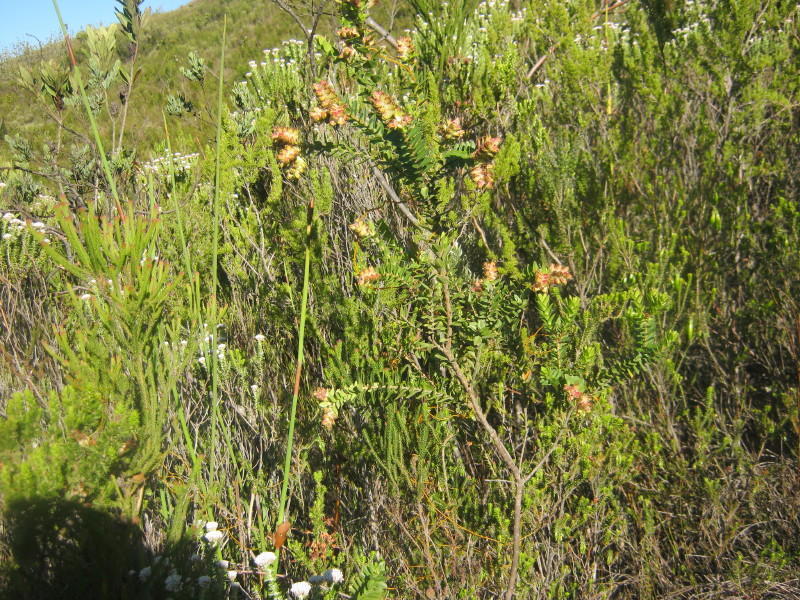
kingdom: Plantae
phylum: Tracheophyta
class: Magnoliopsida
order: Myrtales
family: Penaeaceae
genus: Penaea
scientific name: Penaea cneorum
